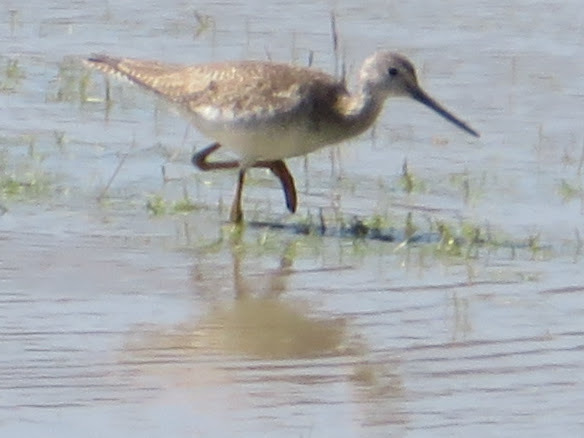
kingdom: Animalia
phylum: Chordata
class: Aves
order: Charadriiformes
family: Scolopacidae
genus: Tringa
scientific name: Tringa melanoleuca
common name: Greater yellowlegs
